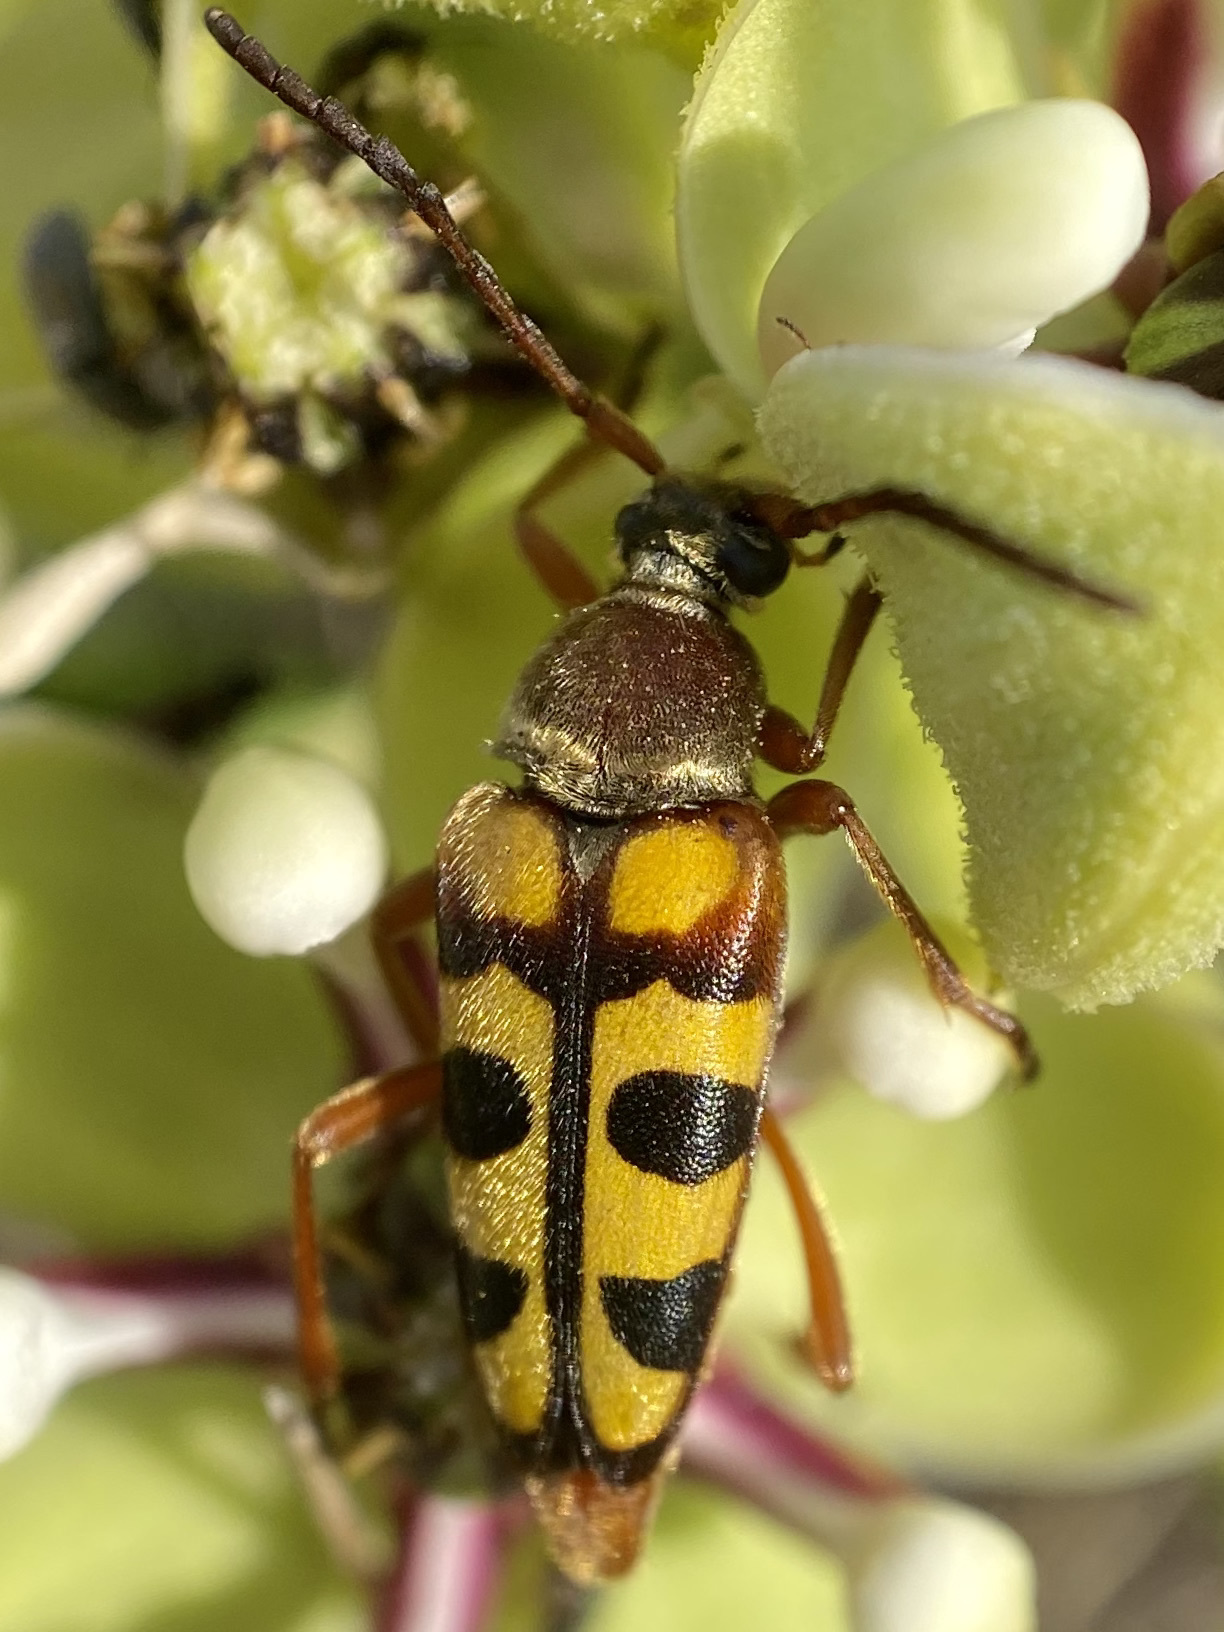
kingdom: Animalia
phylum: Arthropoda
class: Insecta
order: Coleoptera
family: Cerambycidae
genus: Typocerus
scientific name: Typocerus sinuatus
